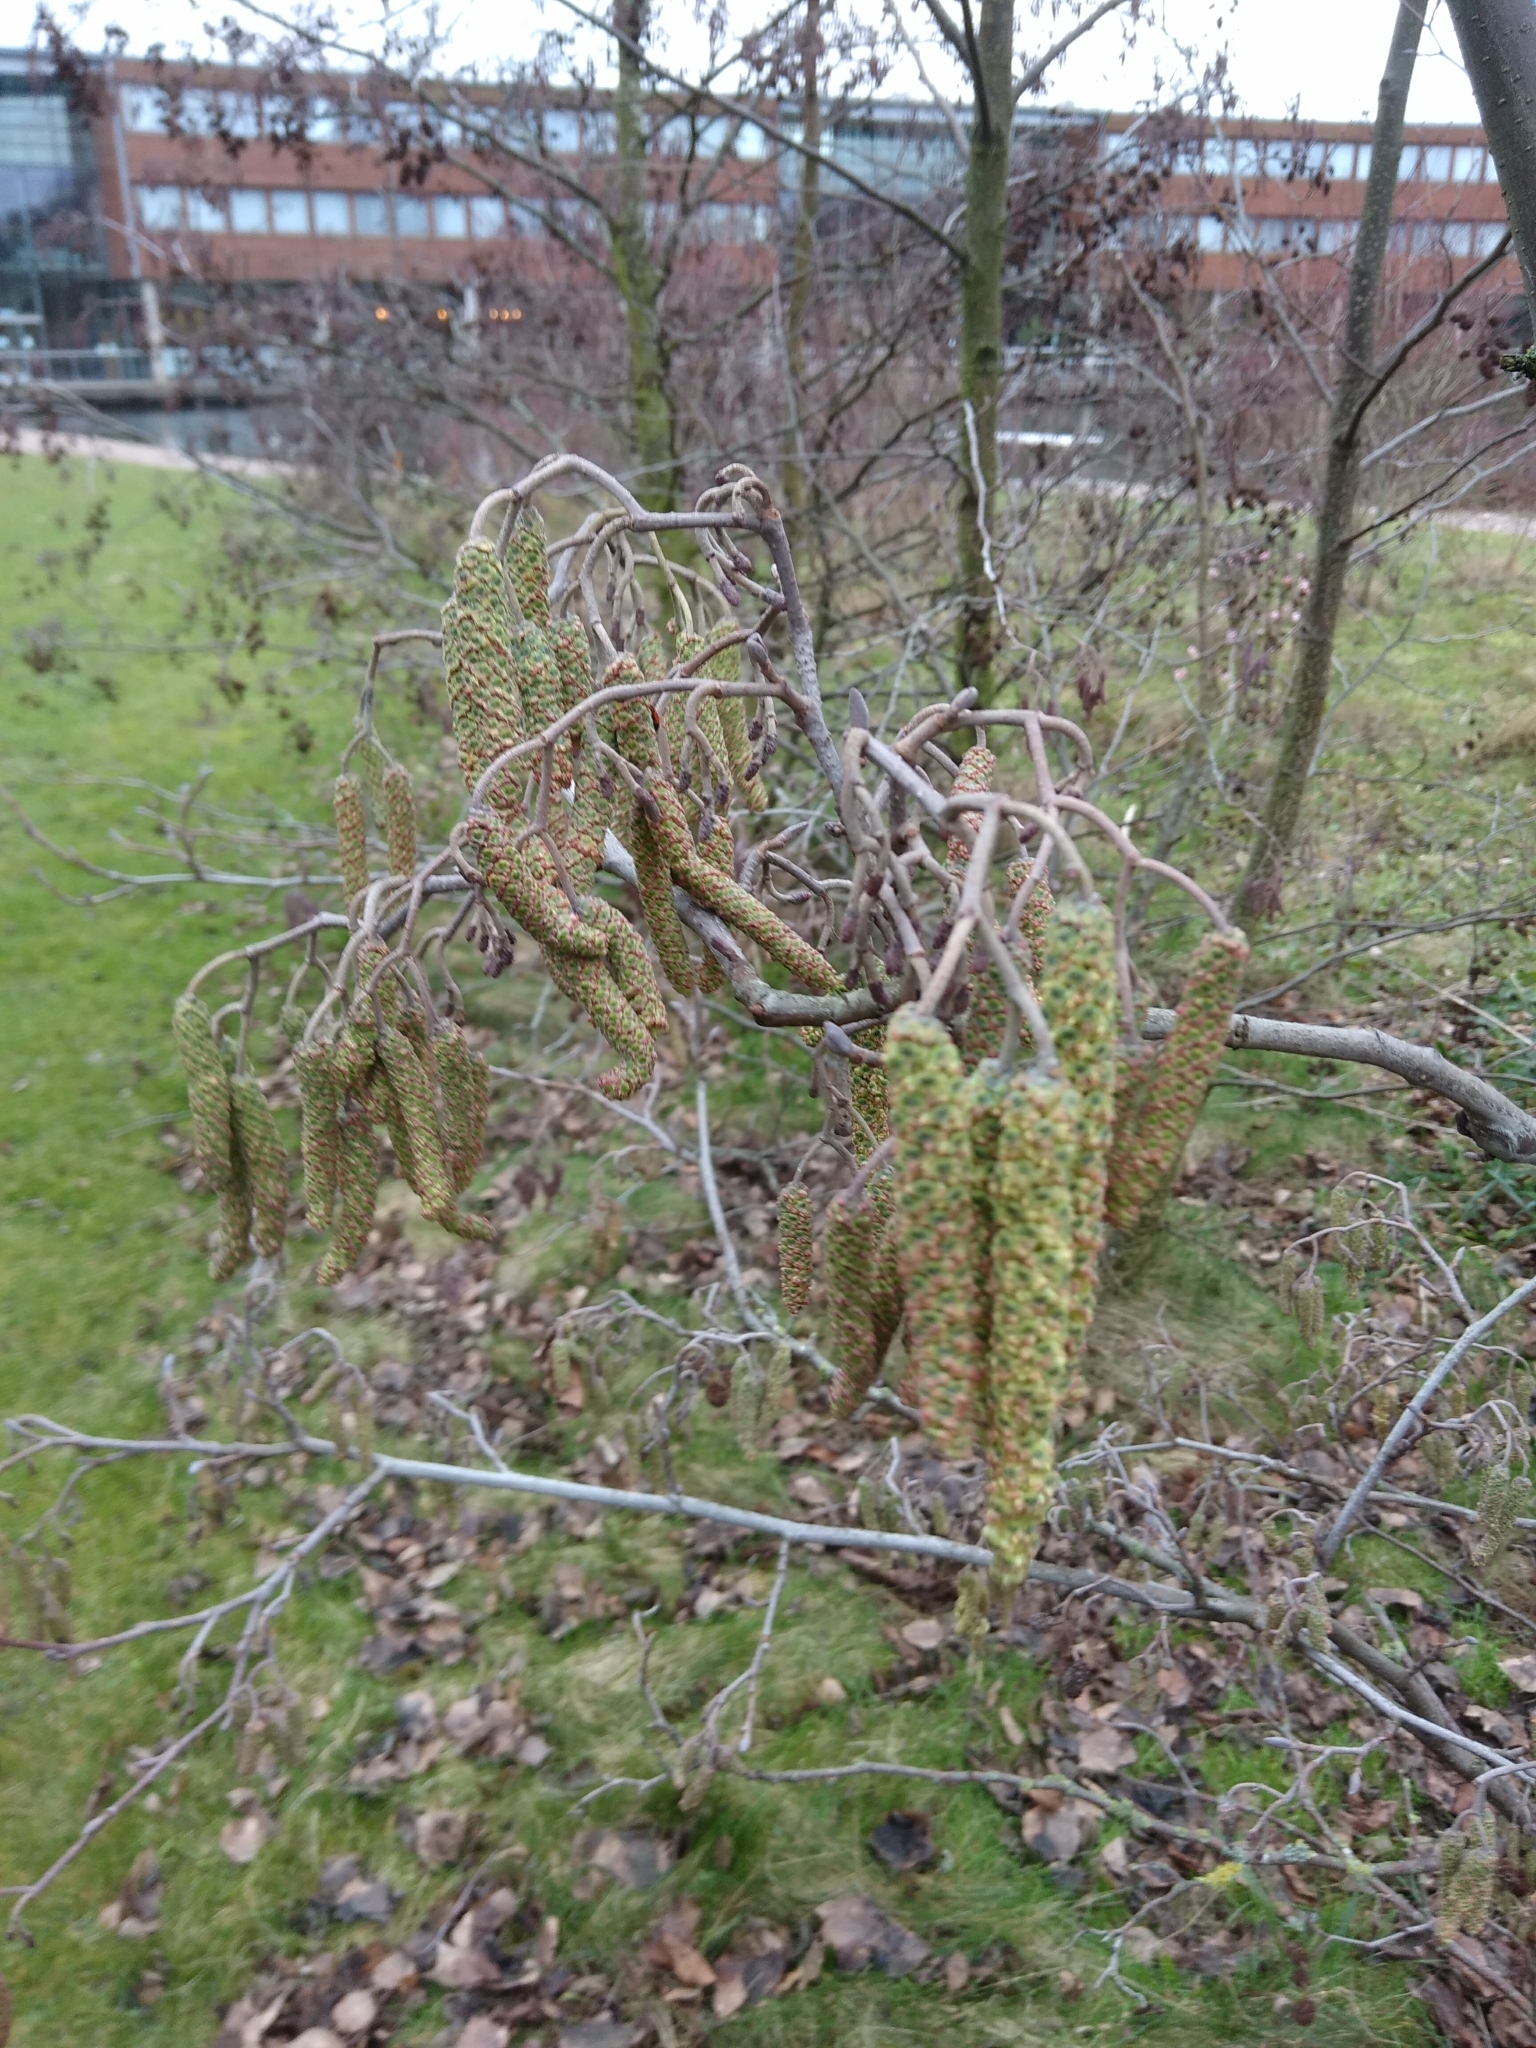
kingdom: Plantae
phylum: Tracheophyta
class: Magnoliopsida
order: Fagales
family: Betulaceae
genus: Alnus
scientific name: Alnus glutinosa
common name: Black alder
